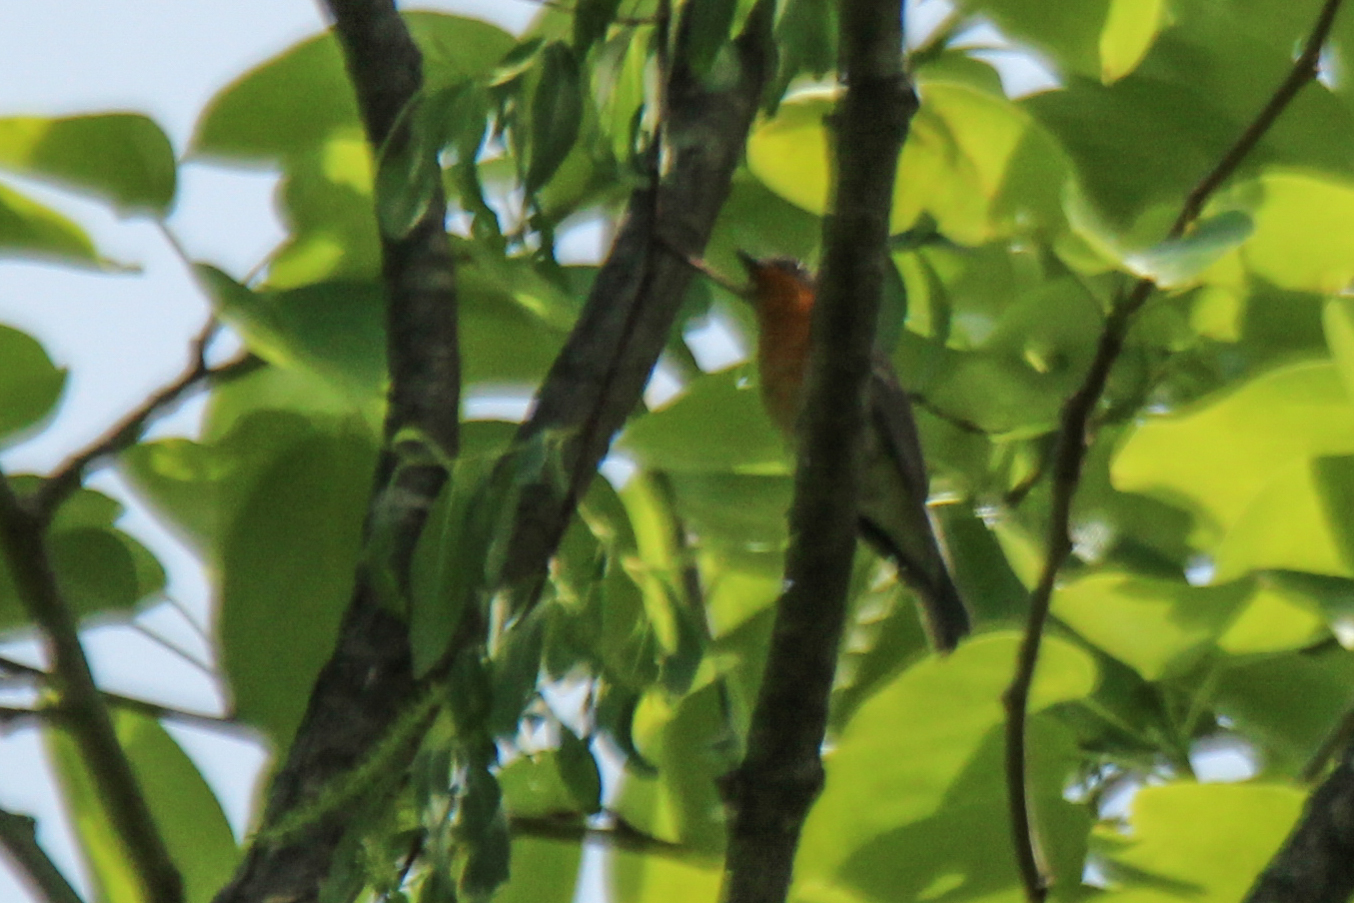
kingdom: Animalia
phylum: Chordata
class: Aves
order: Passeriformes
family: Muscicapidae
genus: Ficedula
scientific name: Ficedula mugimaki
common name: Mugimaki flycatcher
